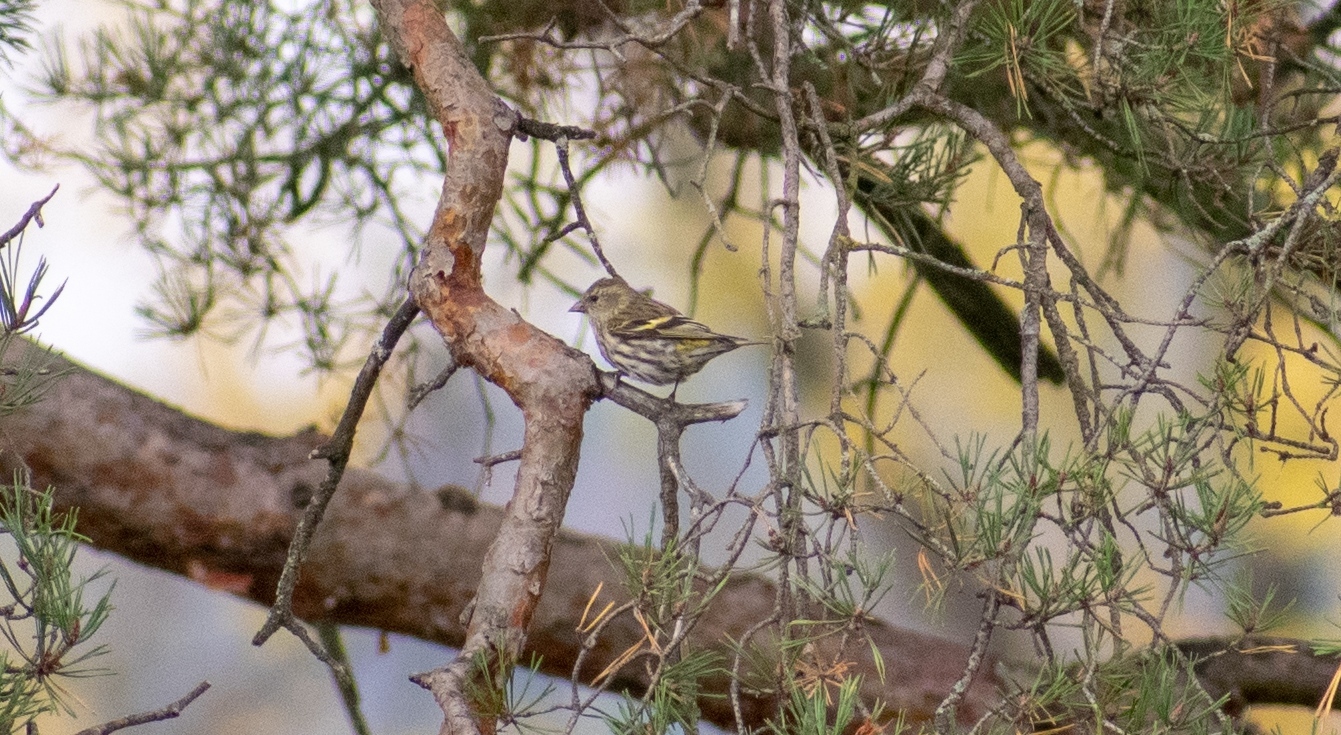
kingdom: Animalia
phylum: Chordata
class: Aves
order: Passeriformes
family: Fringillidae
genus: Spinus
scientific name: Spinus spinus
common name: Eurasian siskin
